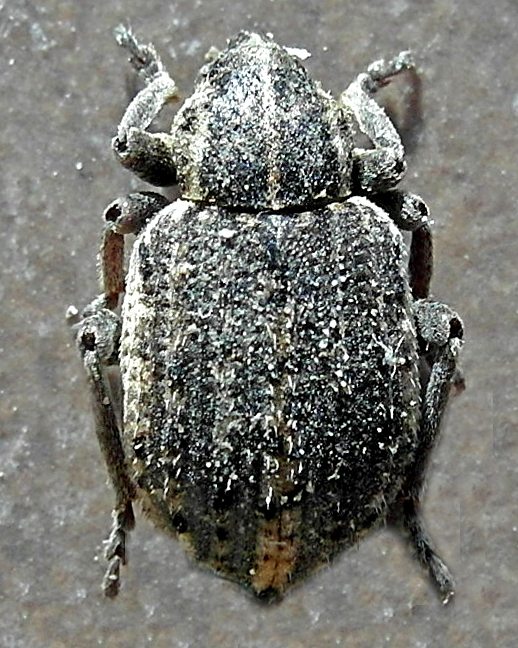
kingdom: Animalia
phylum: Arthropoda
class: Insecta
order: Coleoptera
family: Curculionidae
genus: Brachypera
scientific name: Brachypera zoilus
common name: Clover leaf weevil
